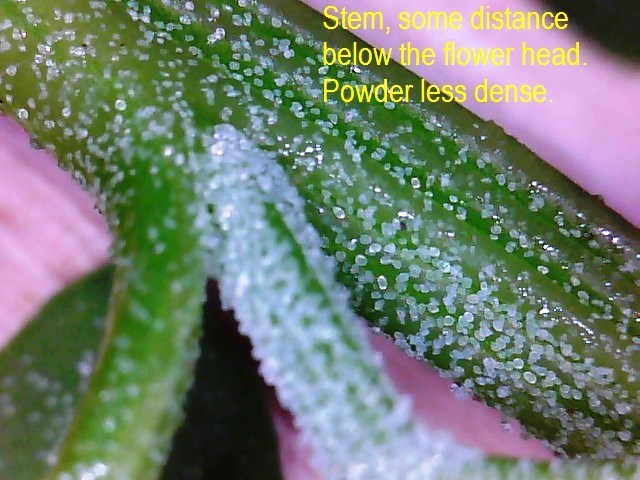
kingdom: Plantae
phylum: Tracheophyta
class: Magnoliopsida
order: Caryophyllales
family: Amaranthaceae
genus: Chenopodium
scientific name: Chenopodium album
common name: Fat-hen
